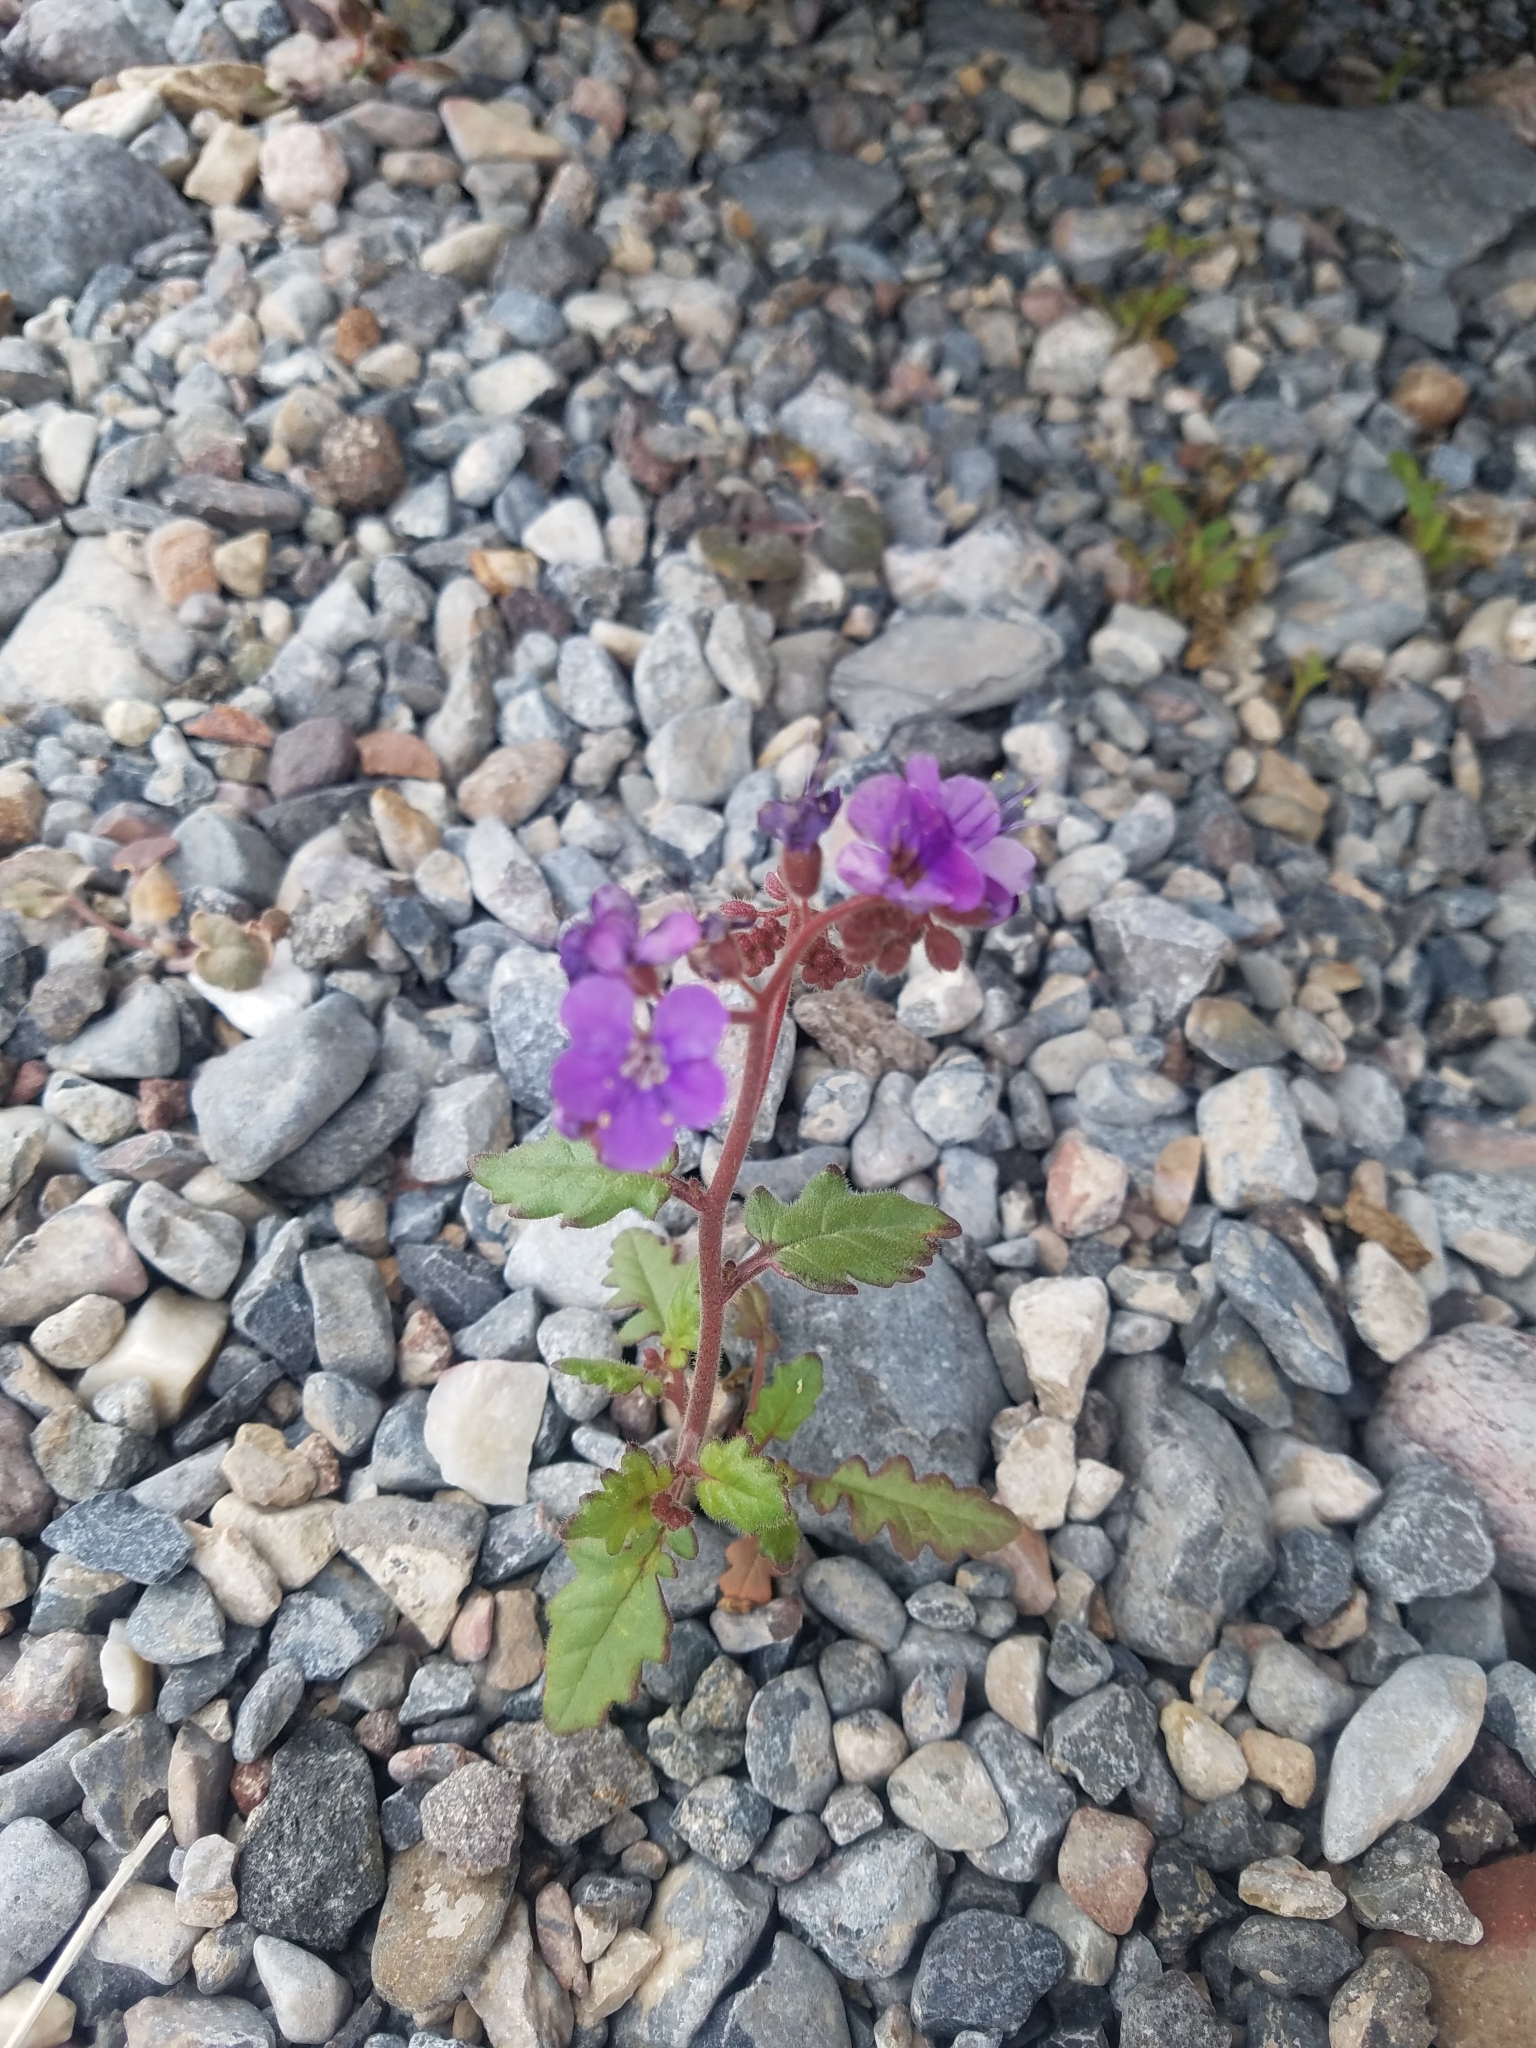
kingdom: Plantae
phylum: Tracheophyta
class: Magnoliopsida
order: Boraginales
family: Hydrophyllaceae
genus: Phacelia
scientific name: Phacelia crenulata
